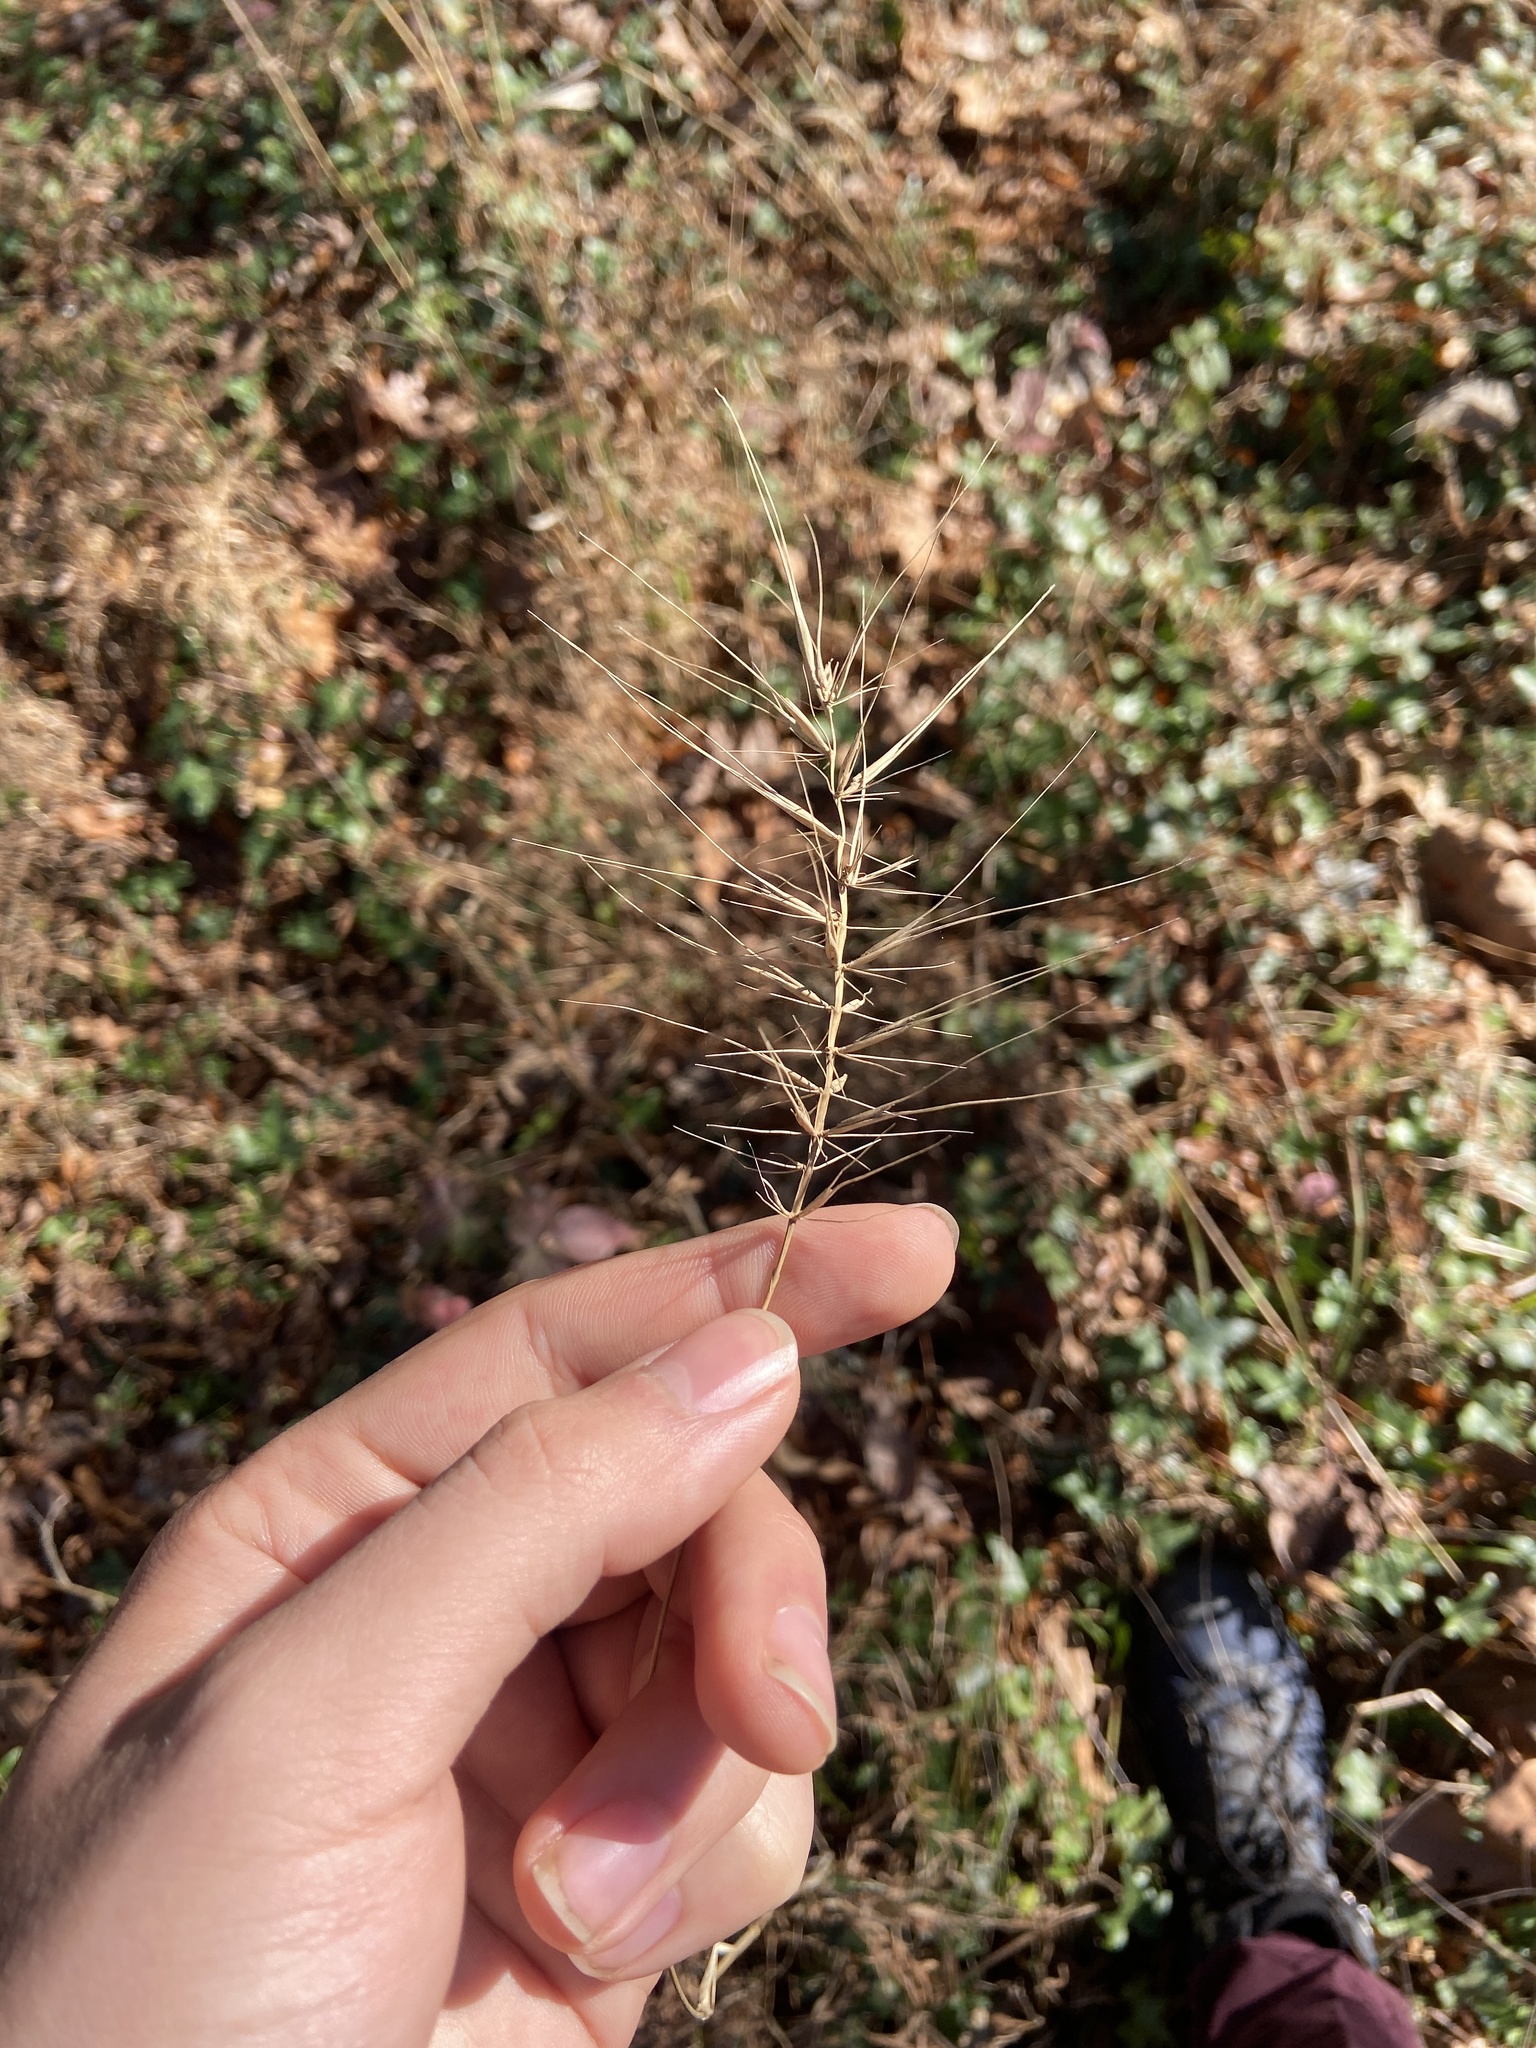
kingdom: Plantae
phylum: Tracheophyta
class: Liliopsida
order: Poales
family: Poaceae
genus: Elymus
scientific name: Elymus hystrix
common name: Bottlebrush grass
